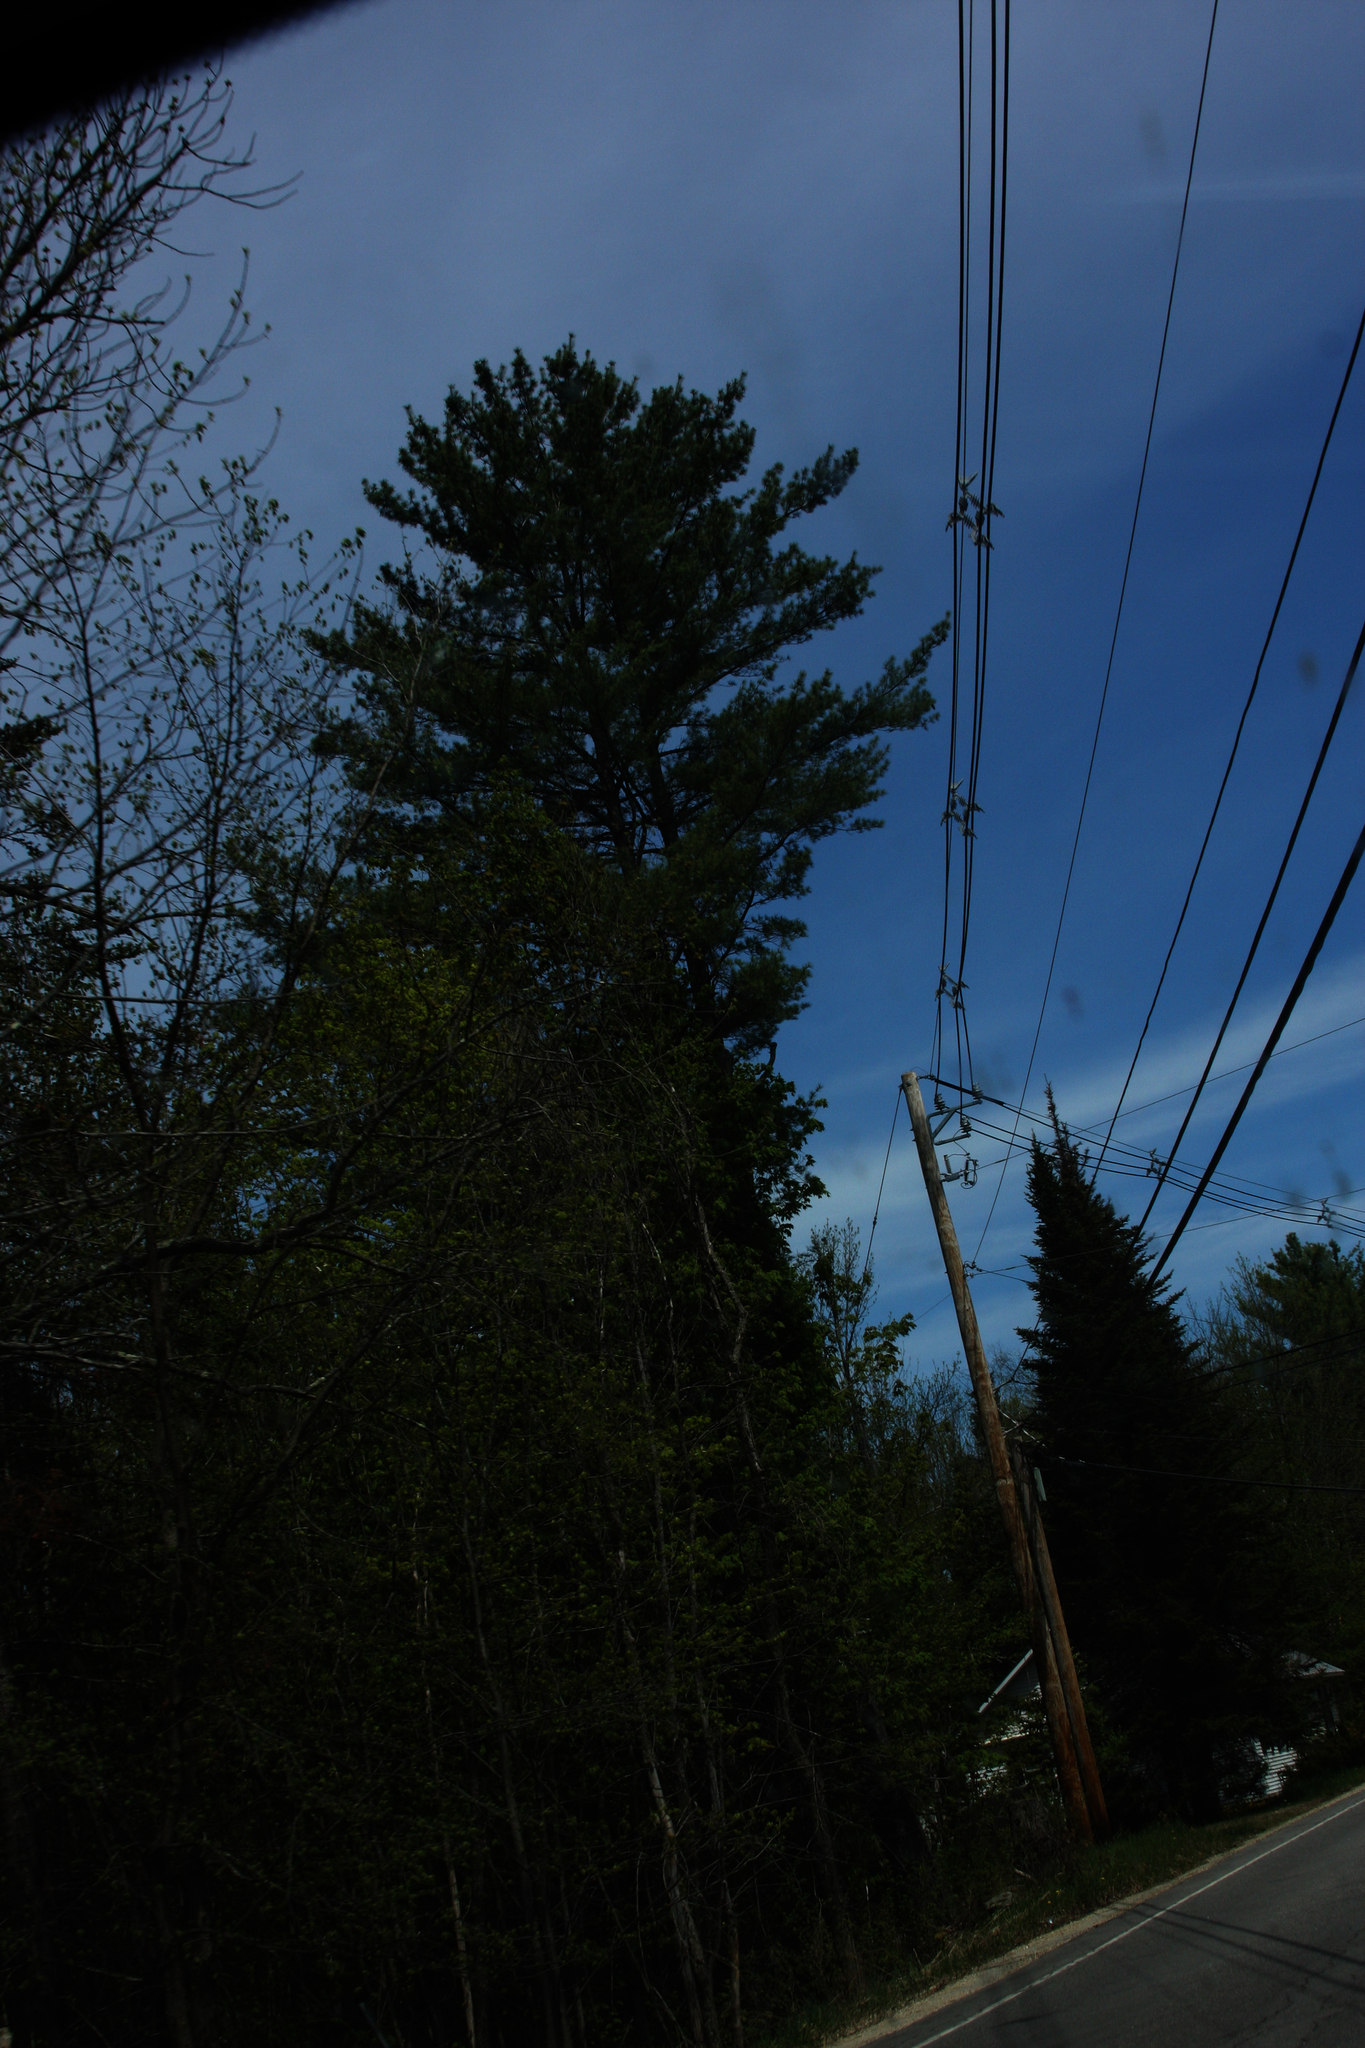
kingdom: Plantae
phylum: Tracheophyta
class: Pinopsida
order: Pinales
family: Pinaceae
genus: Pinus
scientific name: Pinus strobus
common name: Weymouth pine
